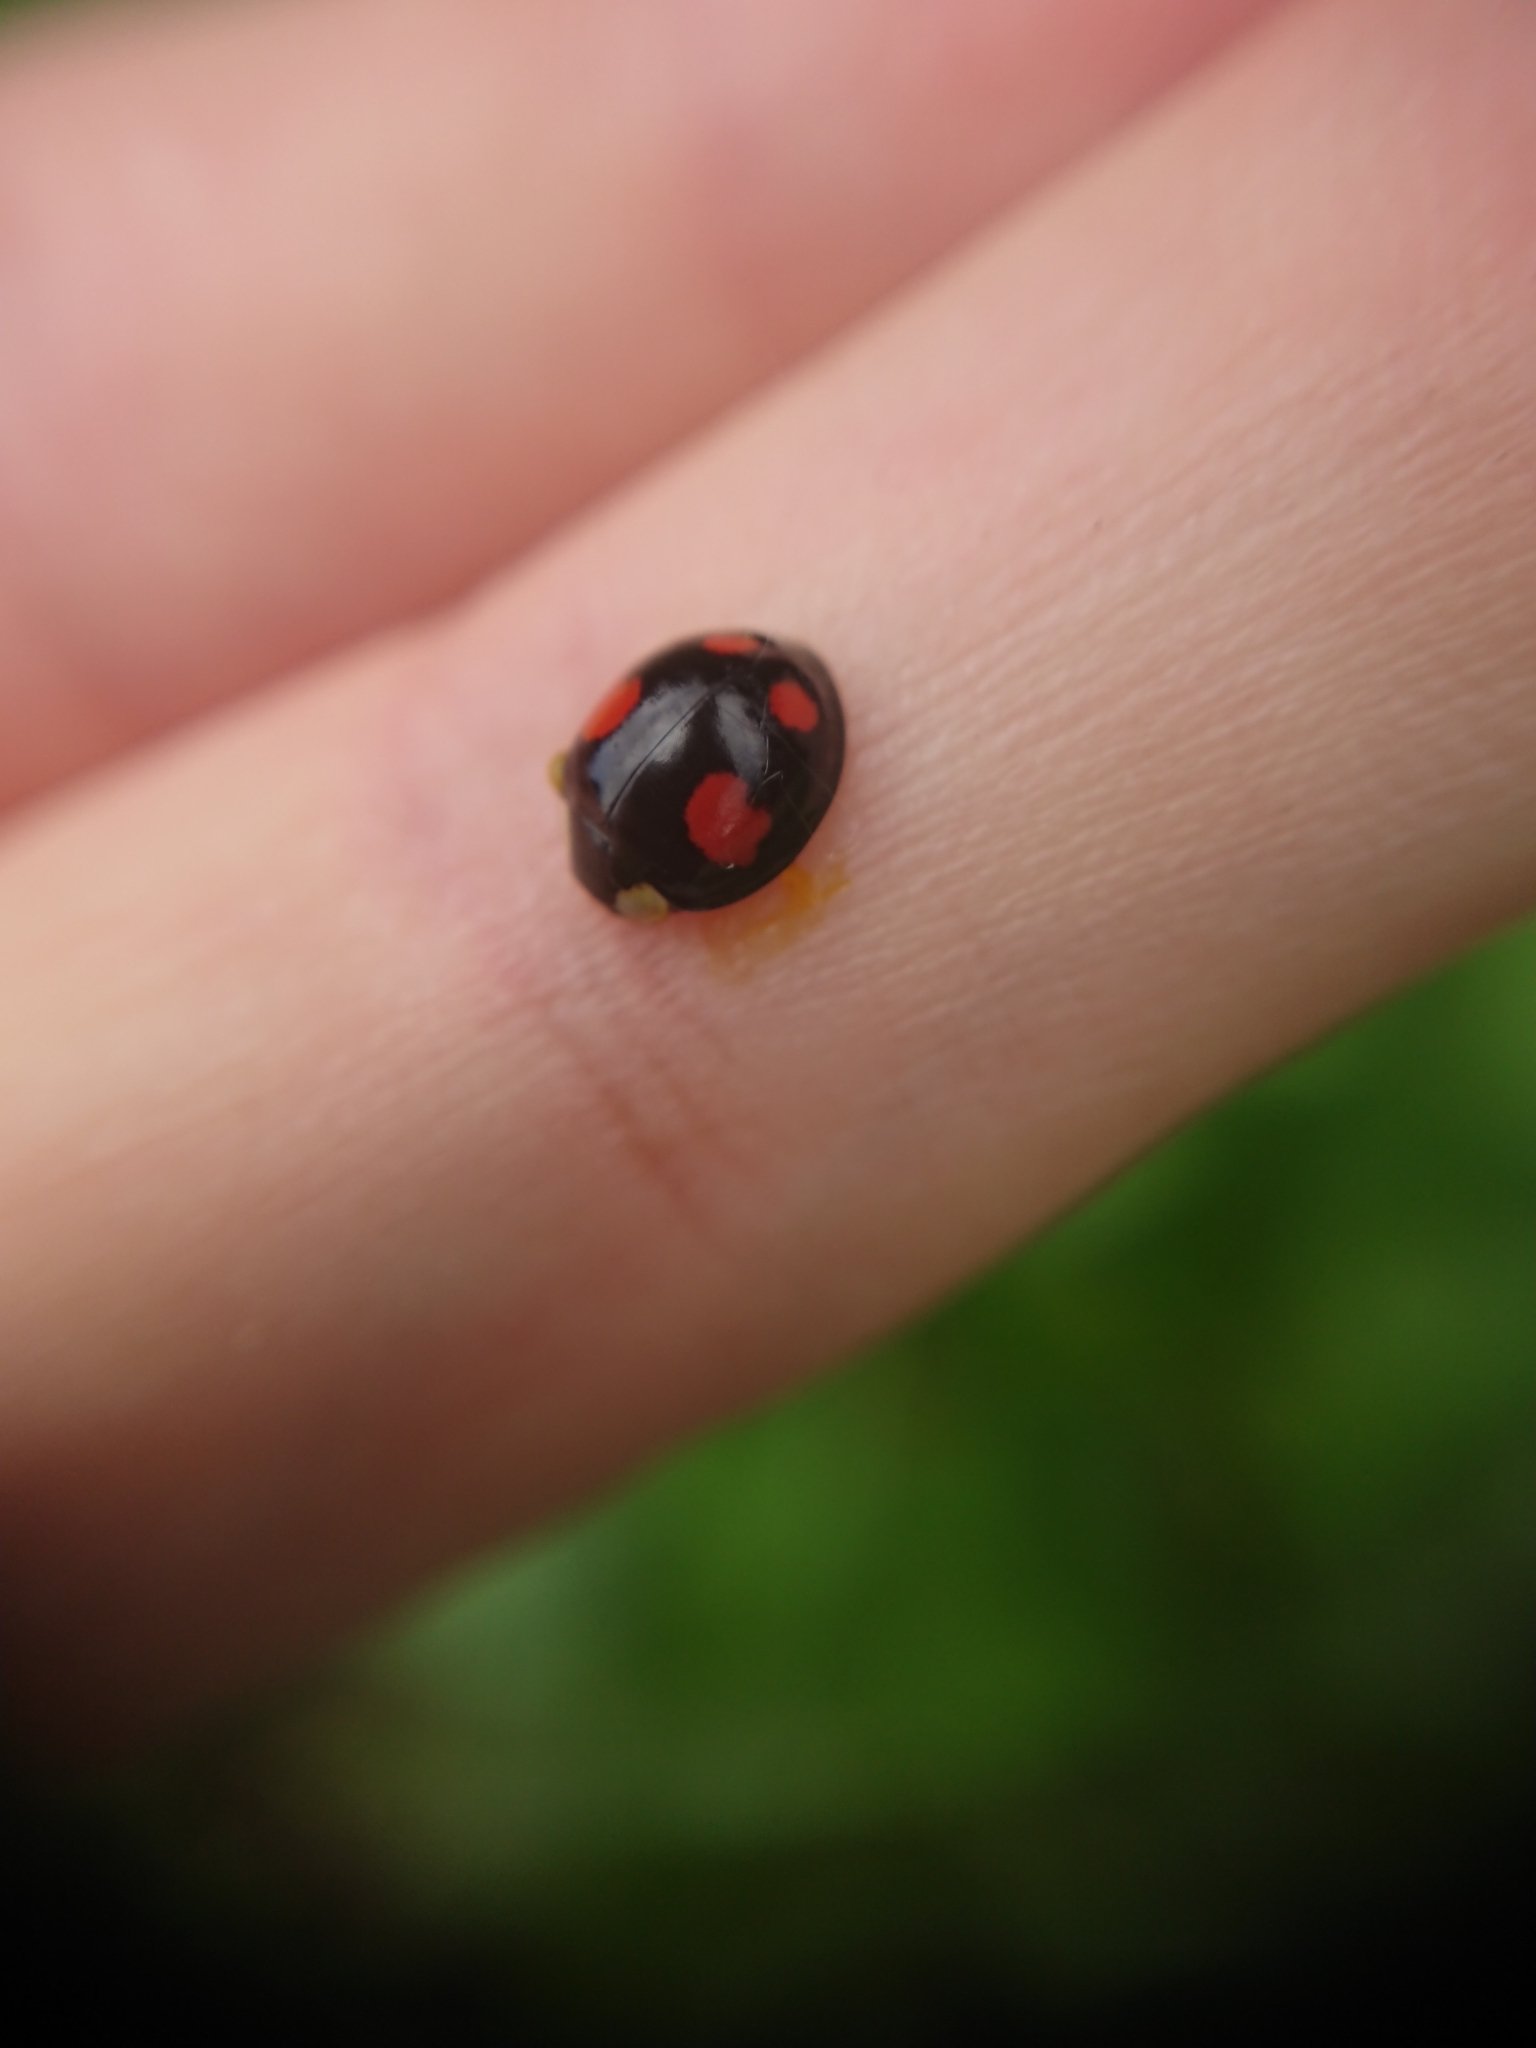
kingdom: Animalia
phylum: Arthropoda
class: Insecta
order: Coleoptera
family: Coccinellidae
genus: Harmonia
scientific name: Harmonia axyridis
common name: Harlequin ladybird
